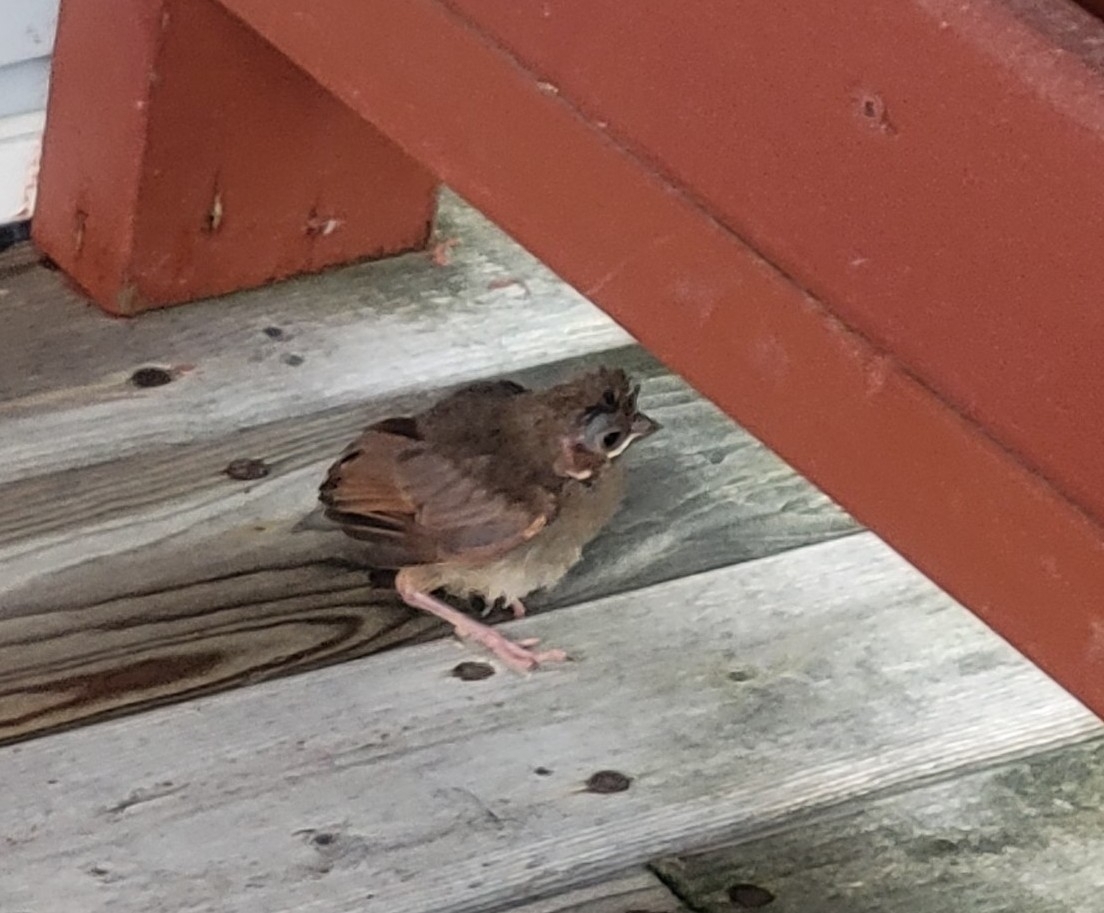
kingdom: Animalia
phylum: Chordata
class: Aves
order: Passeriformes
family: Cardinalidae
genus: Cardinalis
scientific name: Cardinalis cardinalis
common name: Northern cardinal
